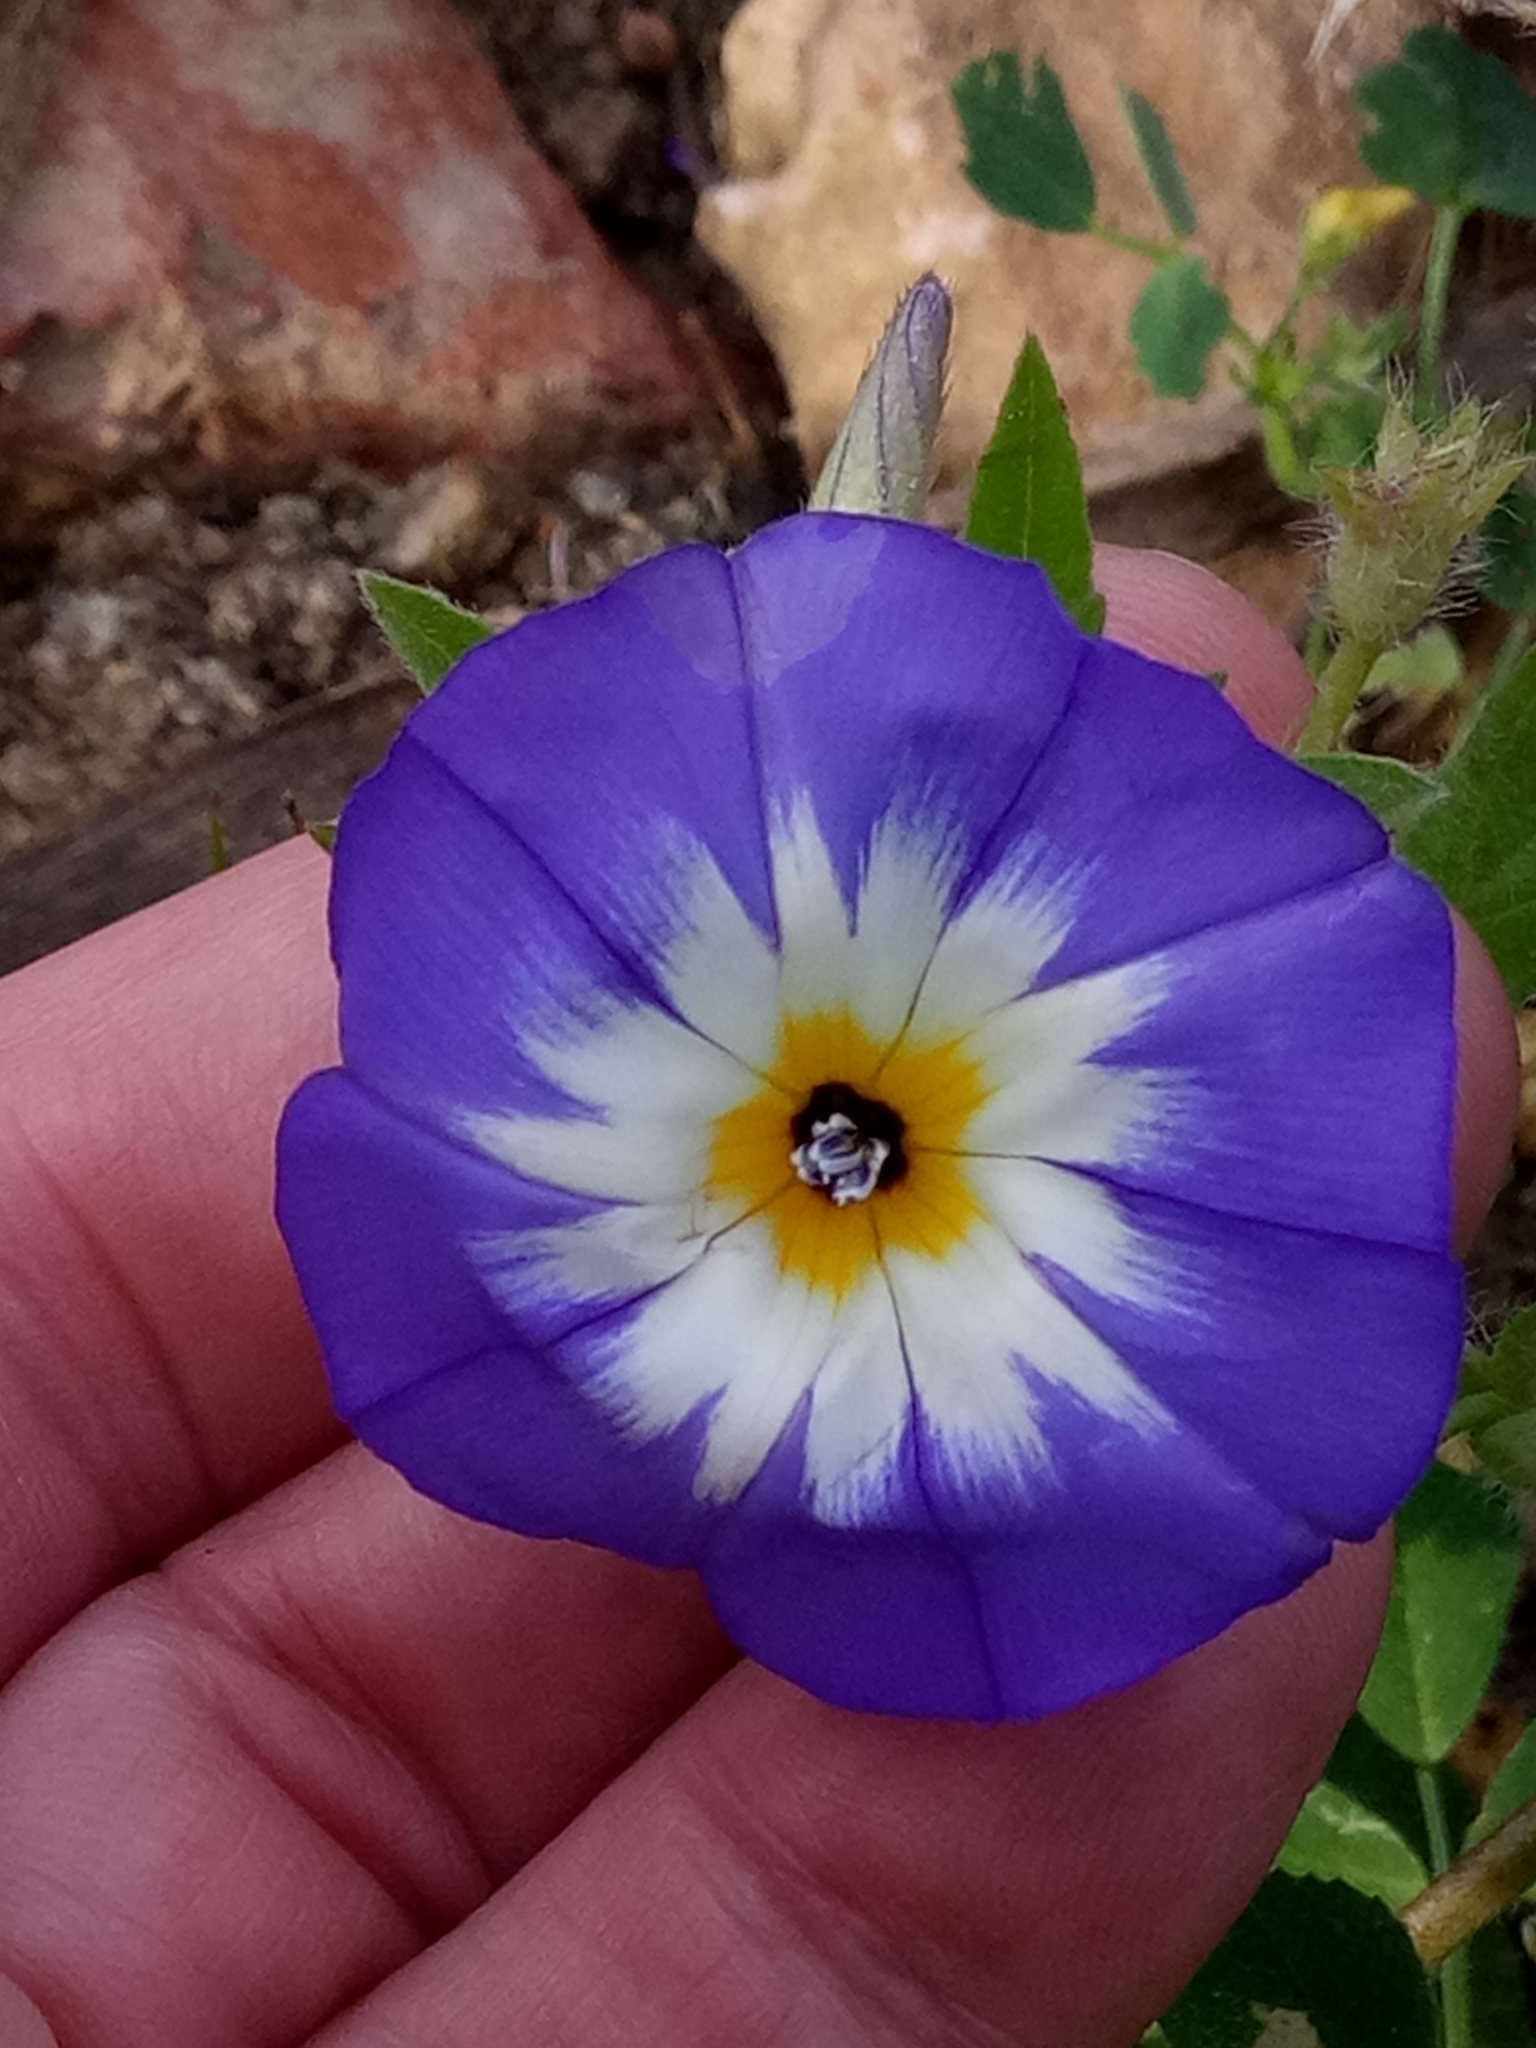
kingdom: Plantae
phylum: Tracheophyta
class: Magnoliopsida
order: Solanales
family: Convolvulaceae
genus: Convolvulus
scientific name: Convolvulus tricolor
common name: Dwarf morning-glory
